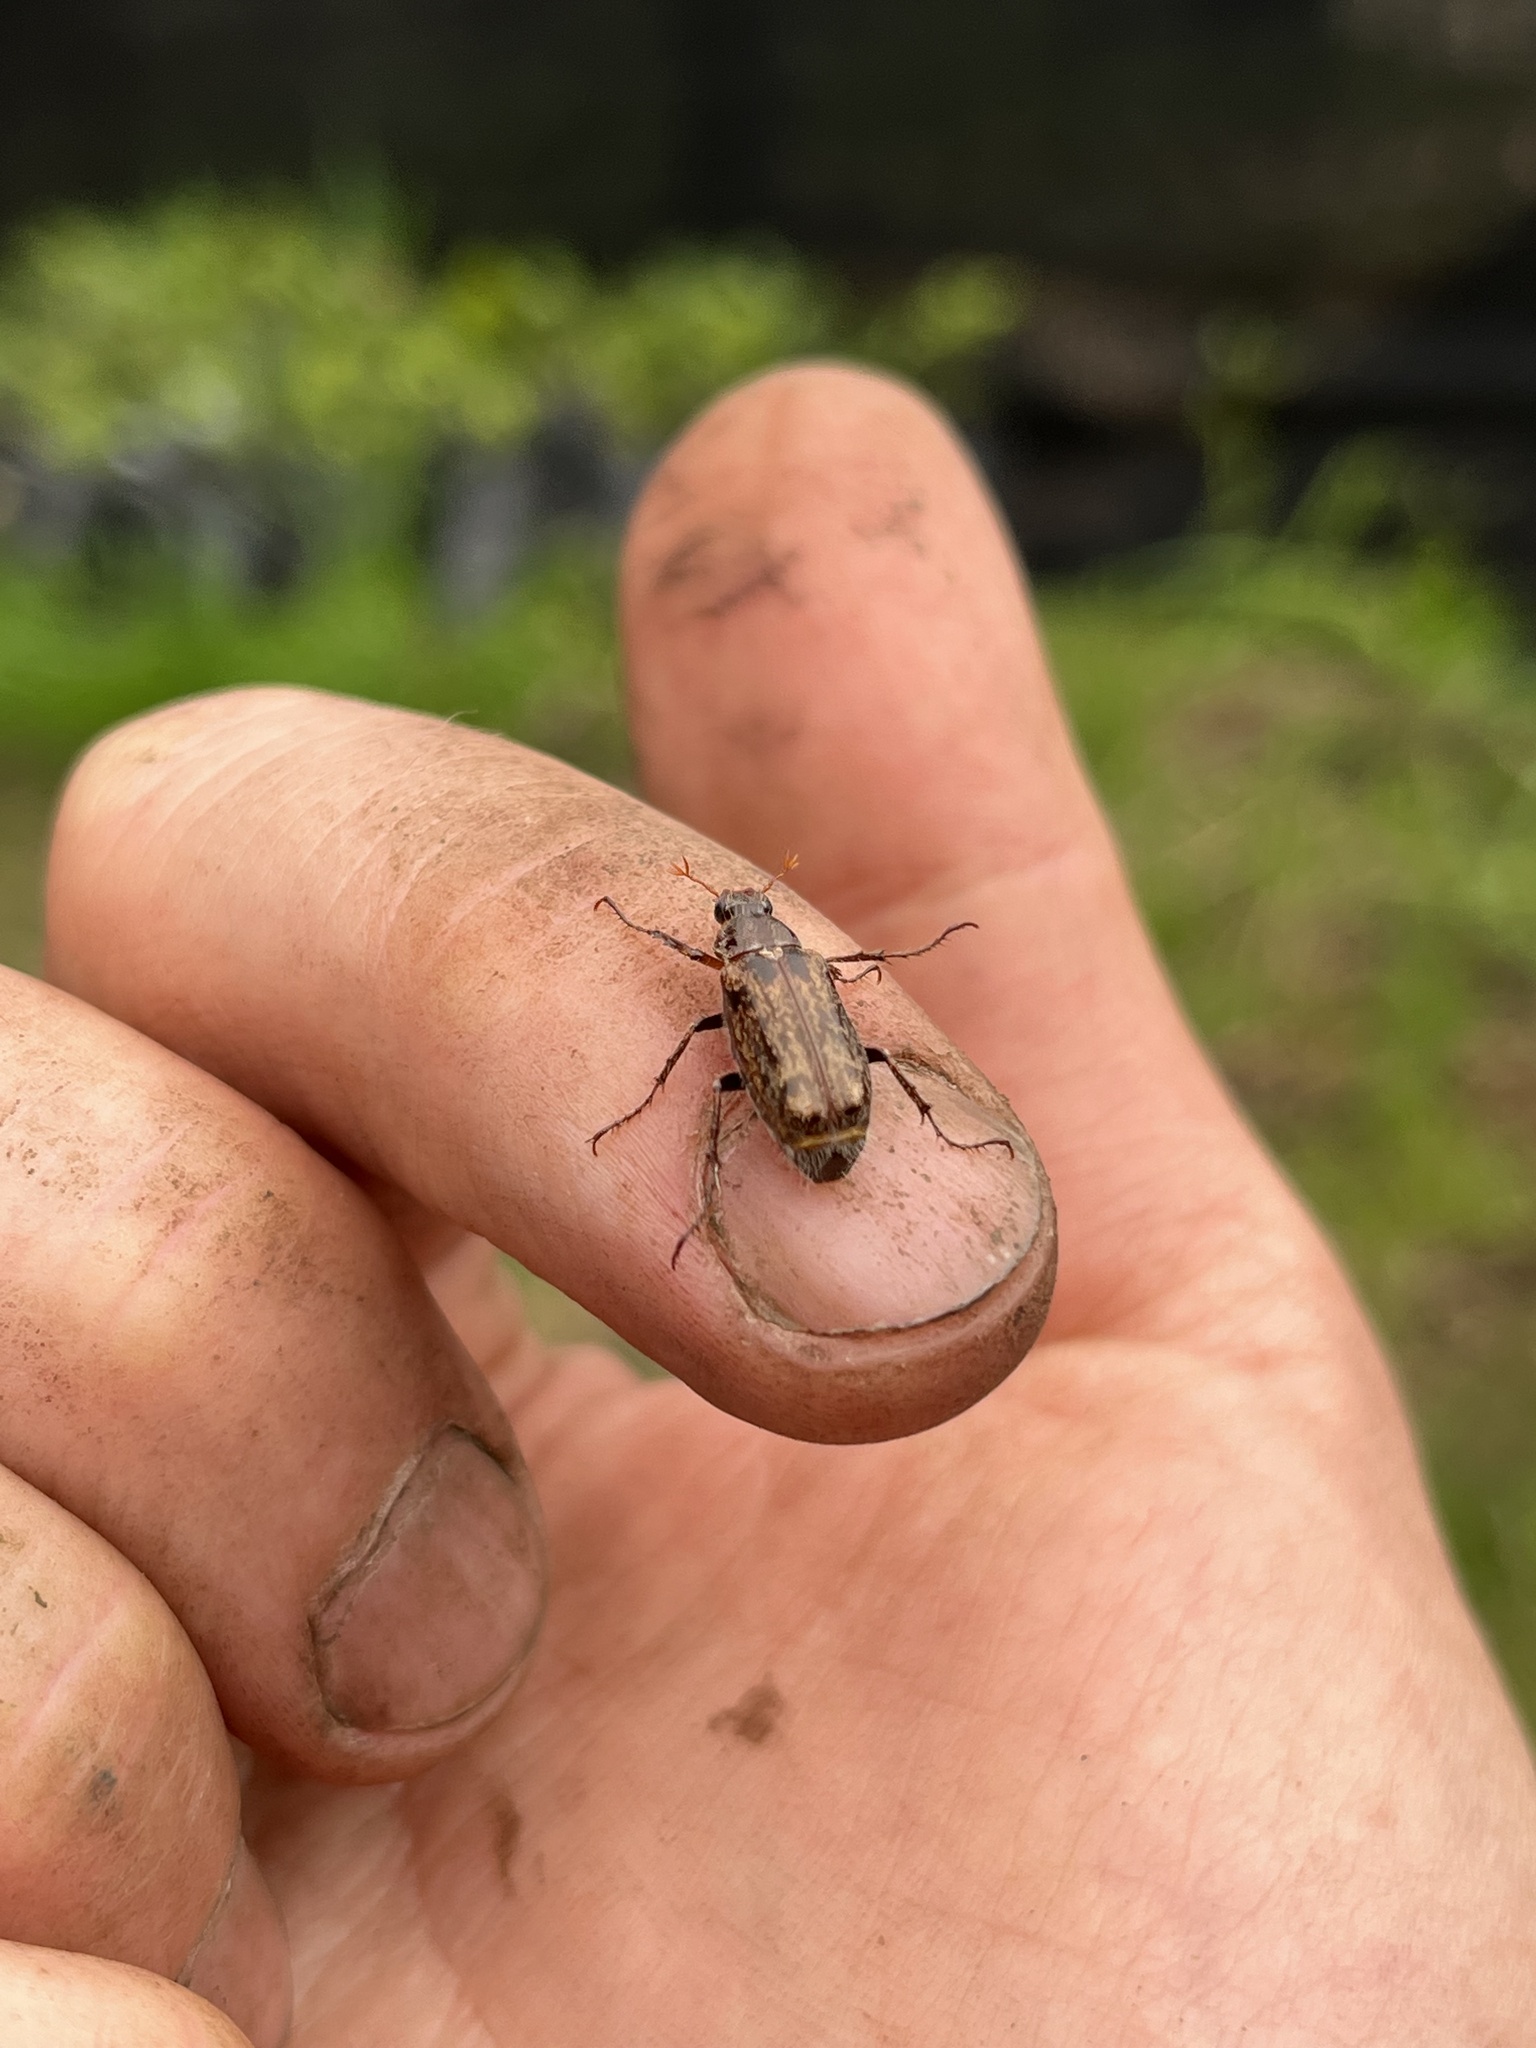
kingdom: Animalia
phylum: Arthropoda
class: Insecta
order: Coleoptera
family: Scarabaeidae
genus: Manopus
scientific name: Manopus biguttatus
